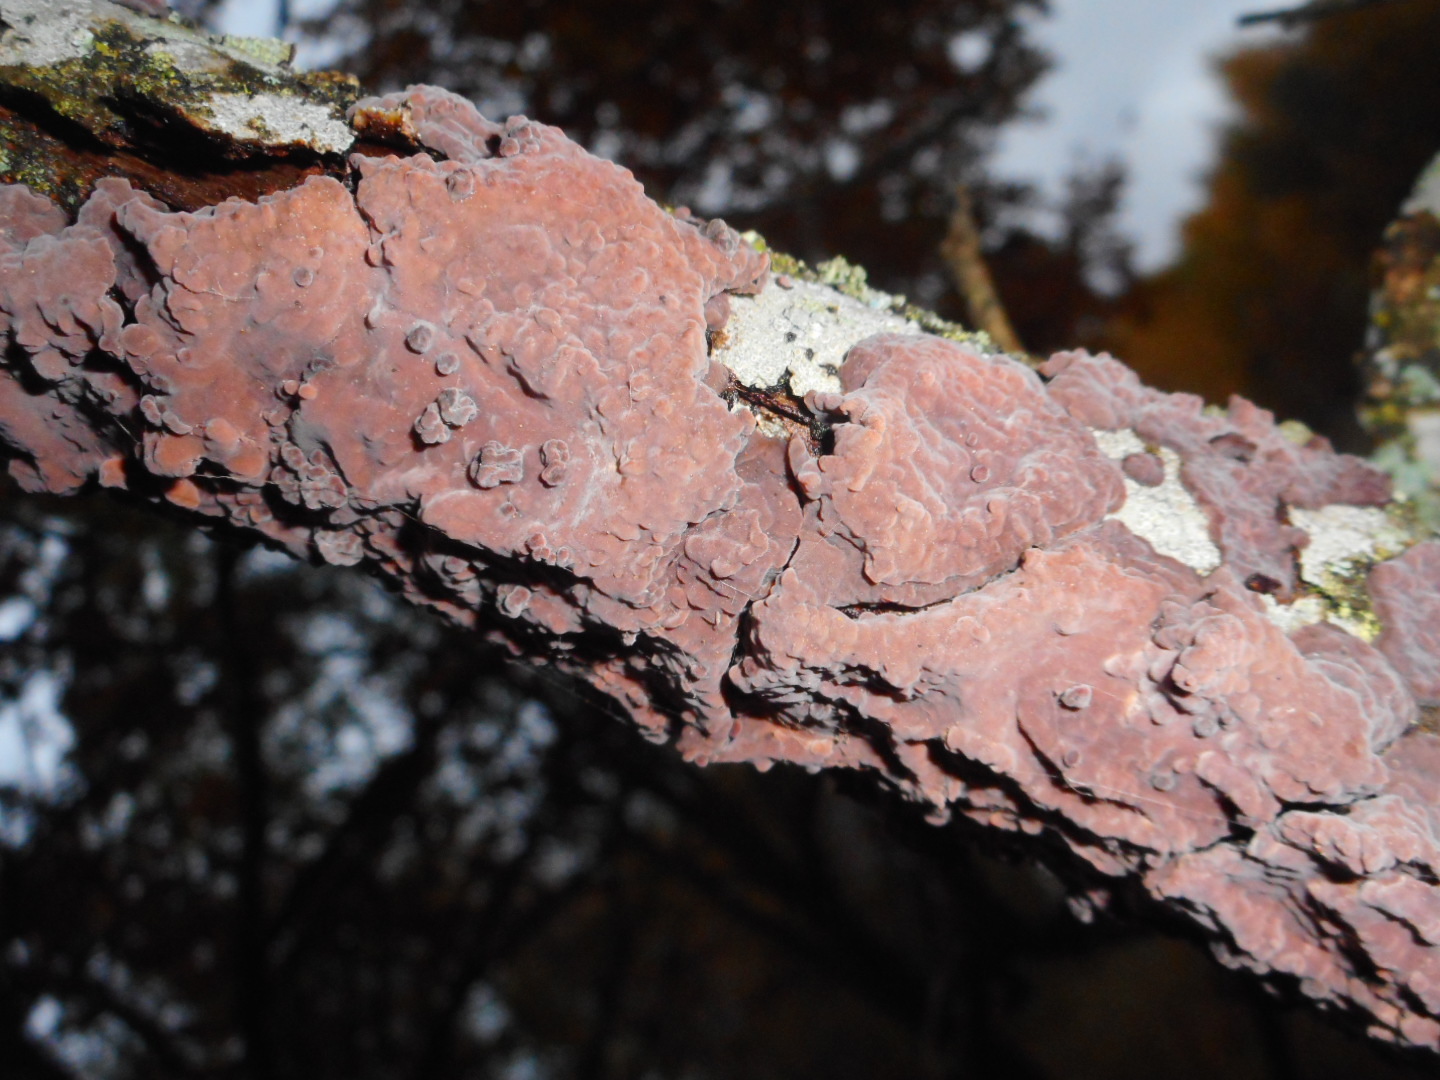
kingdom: Fungi
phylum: Basidiomycota
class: Agaricomycetes
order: Russulales
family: Peniophoraceae
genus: Peniophora
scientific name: Peniophora quercina
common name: Oak crust
